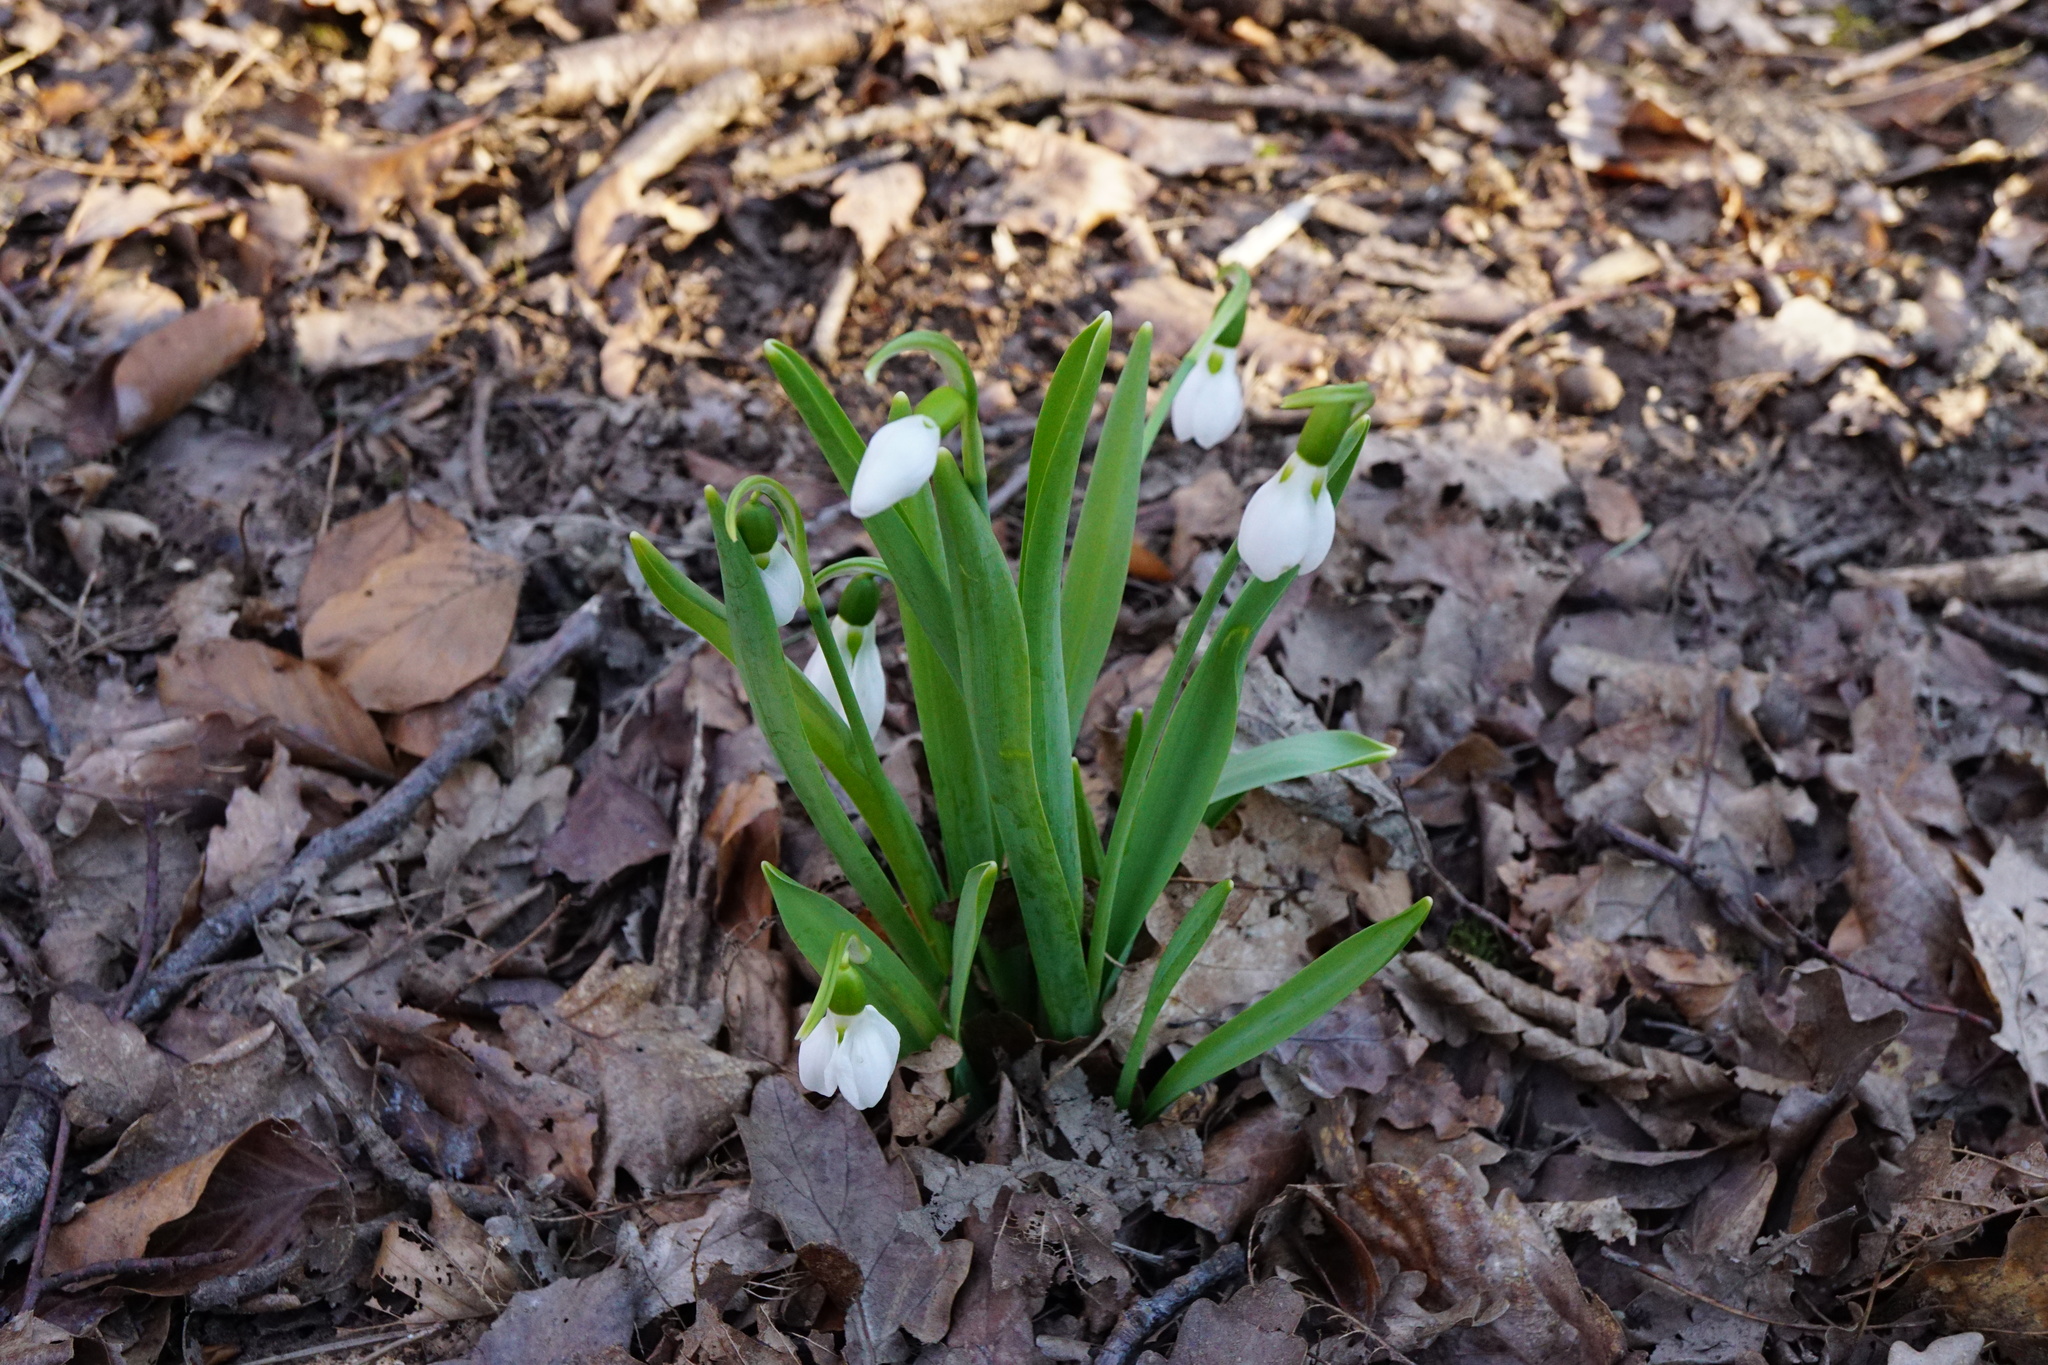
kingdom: Plantae
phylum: Tracheophyta
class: Liliopsida
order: Asparagales
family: Amaryllidaceae
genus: Galanthus
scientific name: Galanthus elwesii
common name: Greater snowdrop
